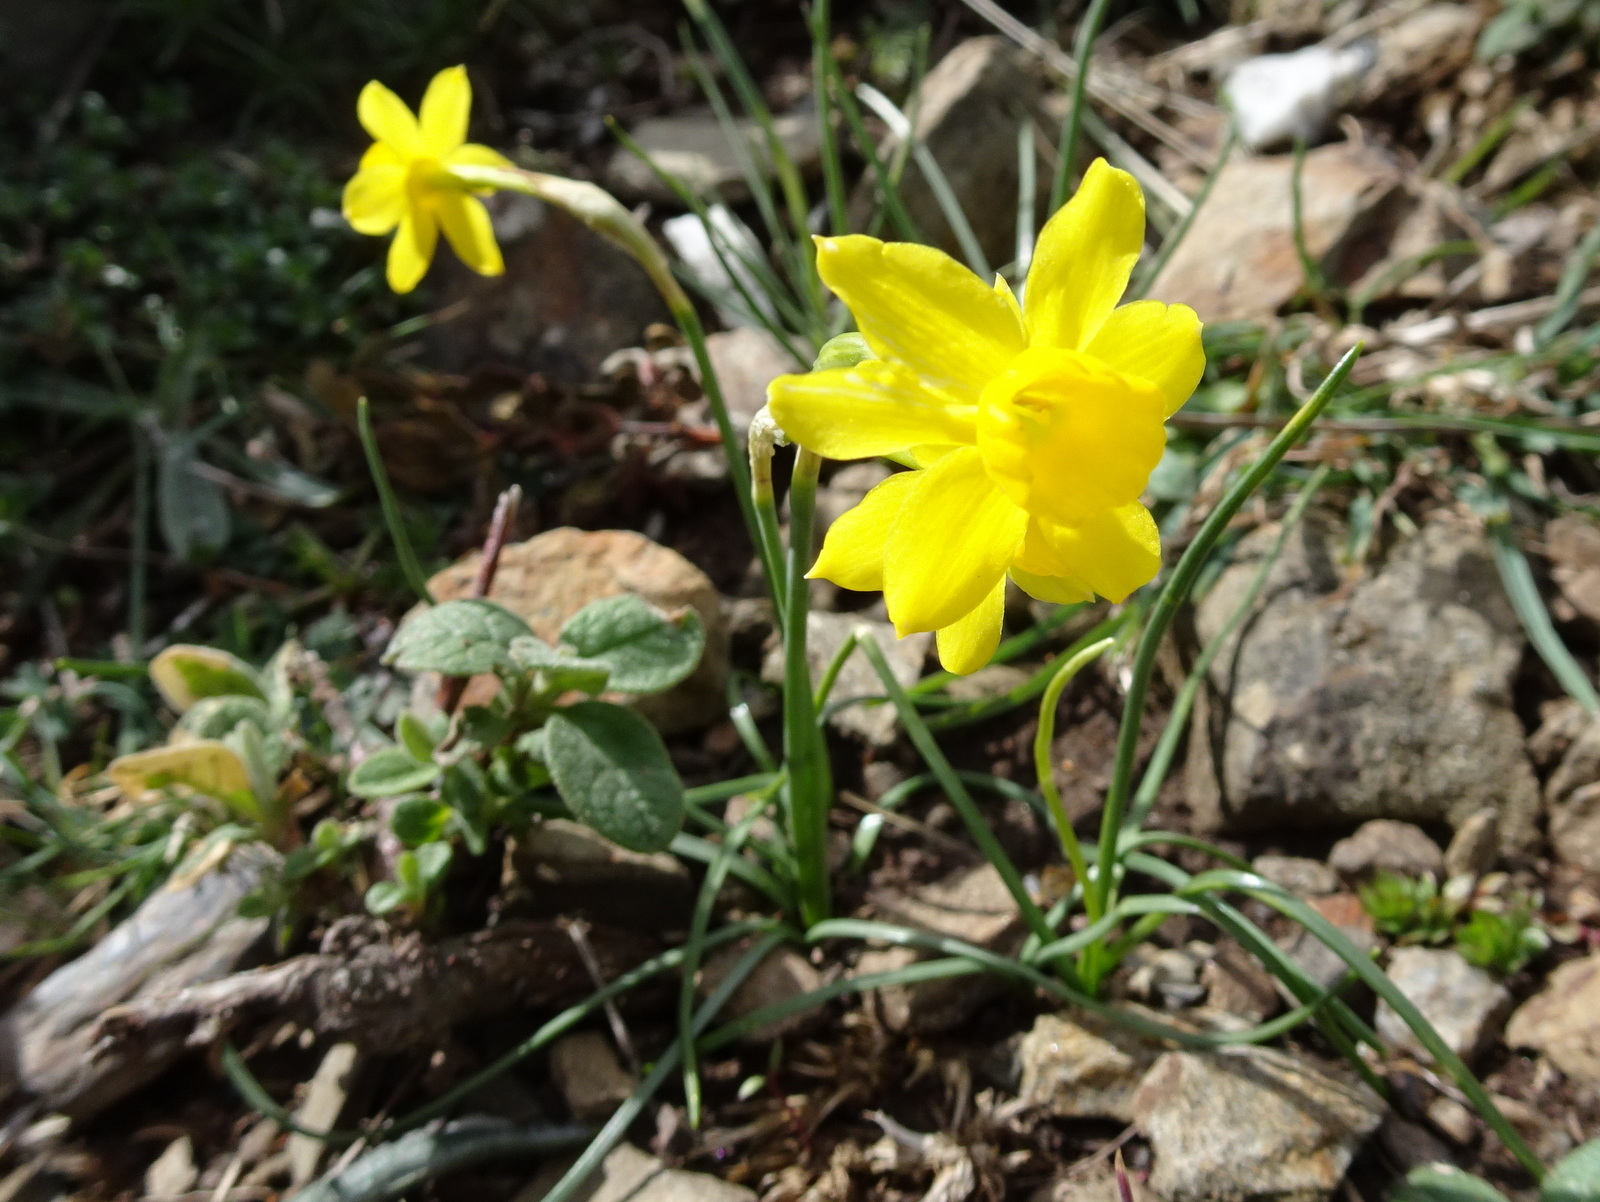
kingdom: Plantae
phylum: Tracheophyta
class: Liliopsida
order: Asparagales
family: Amaryllidaceae
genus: Narcissus
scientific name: Narcissus assoanus
